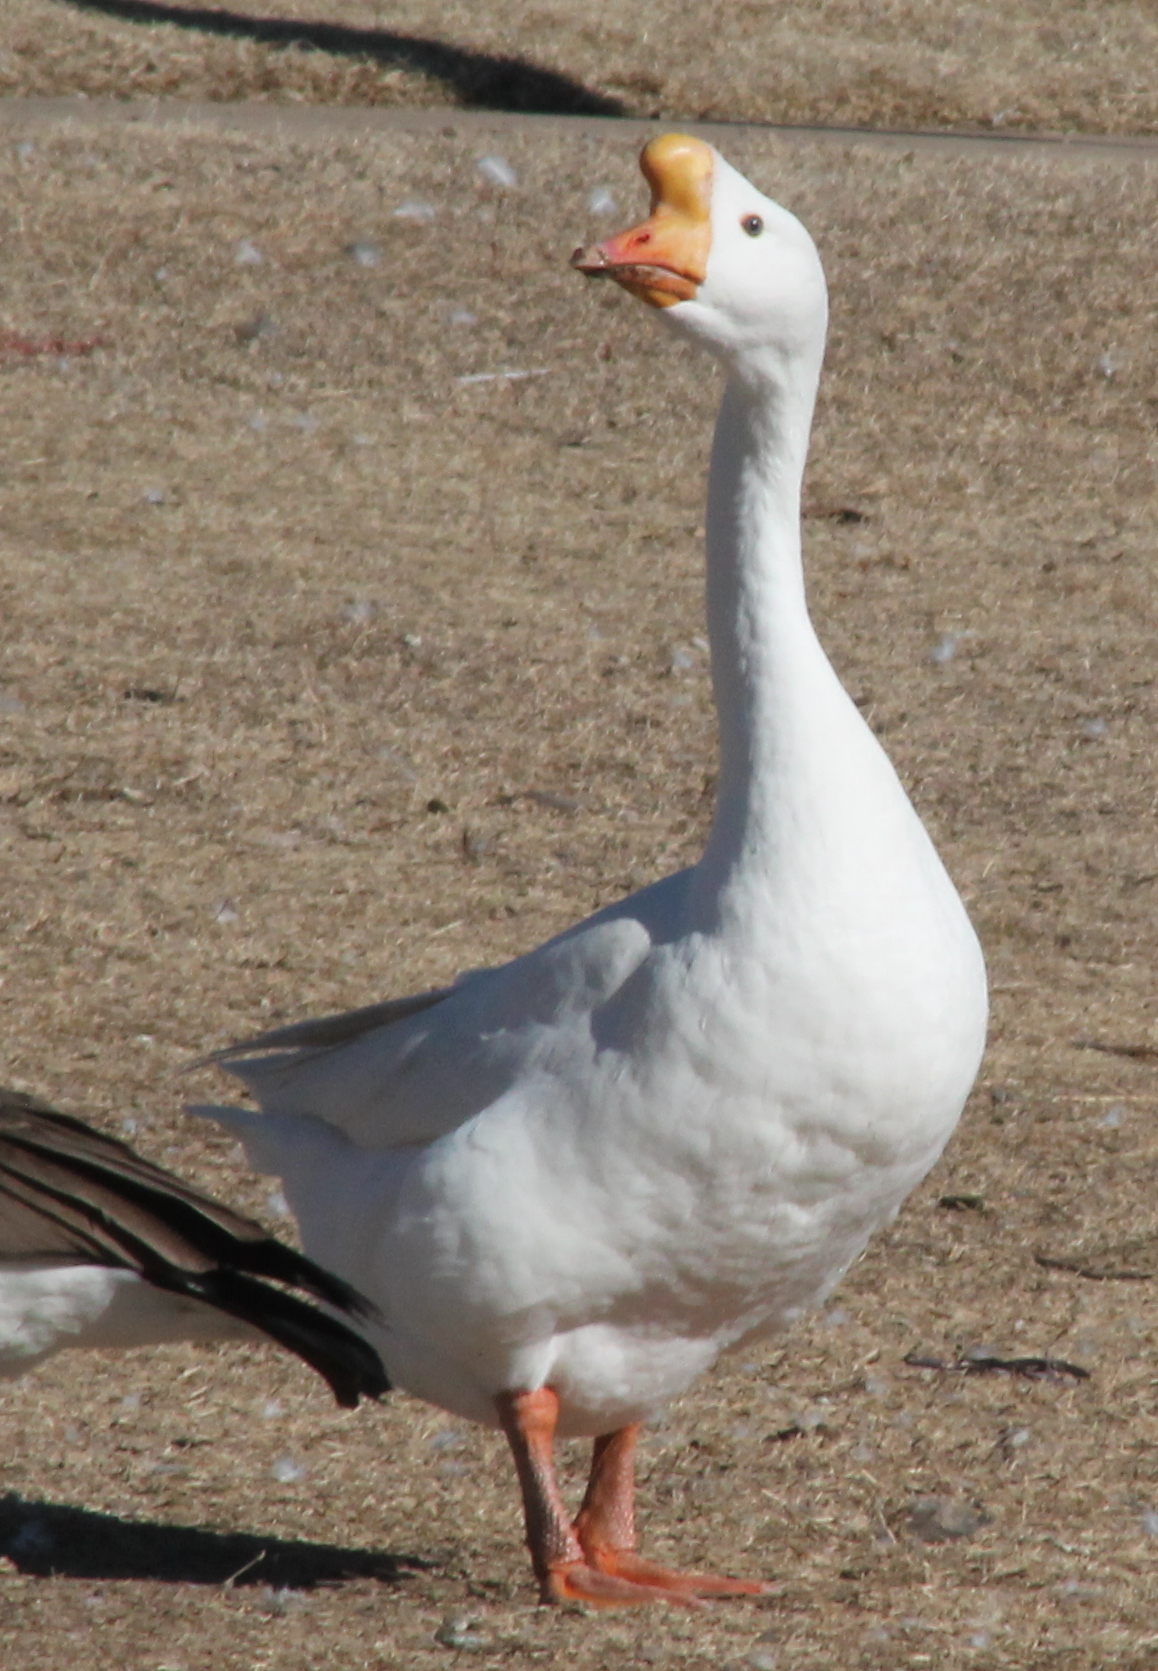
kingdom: Animalia
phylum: Chordata
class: Aves
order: Anseriformes
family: Anatidae
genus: Anser
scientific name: Anser cygnoides
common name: Swan goose
